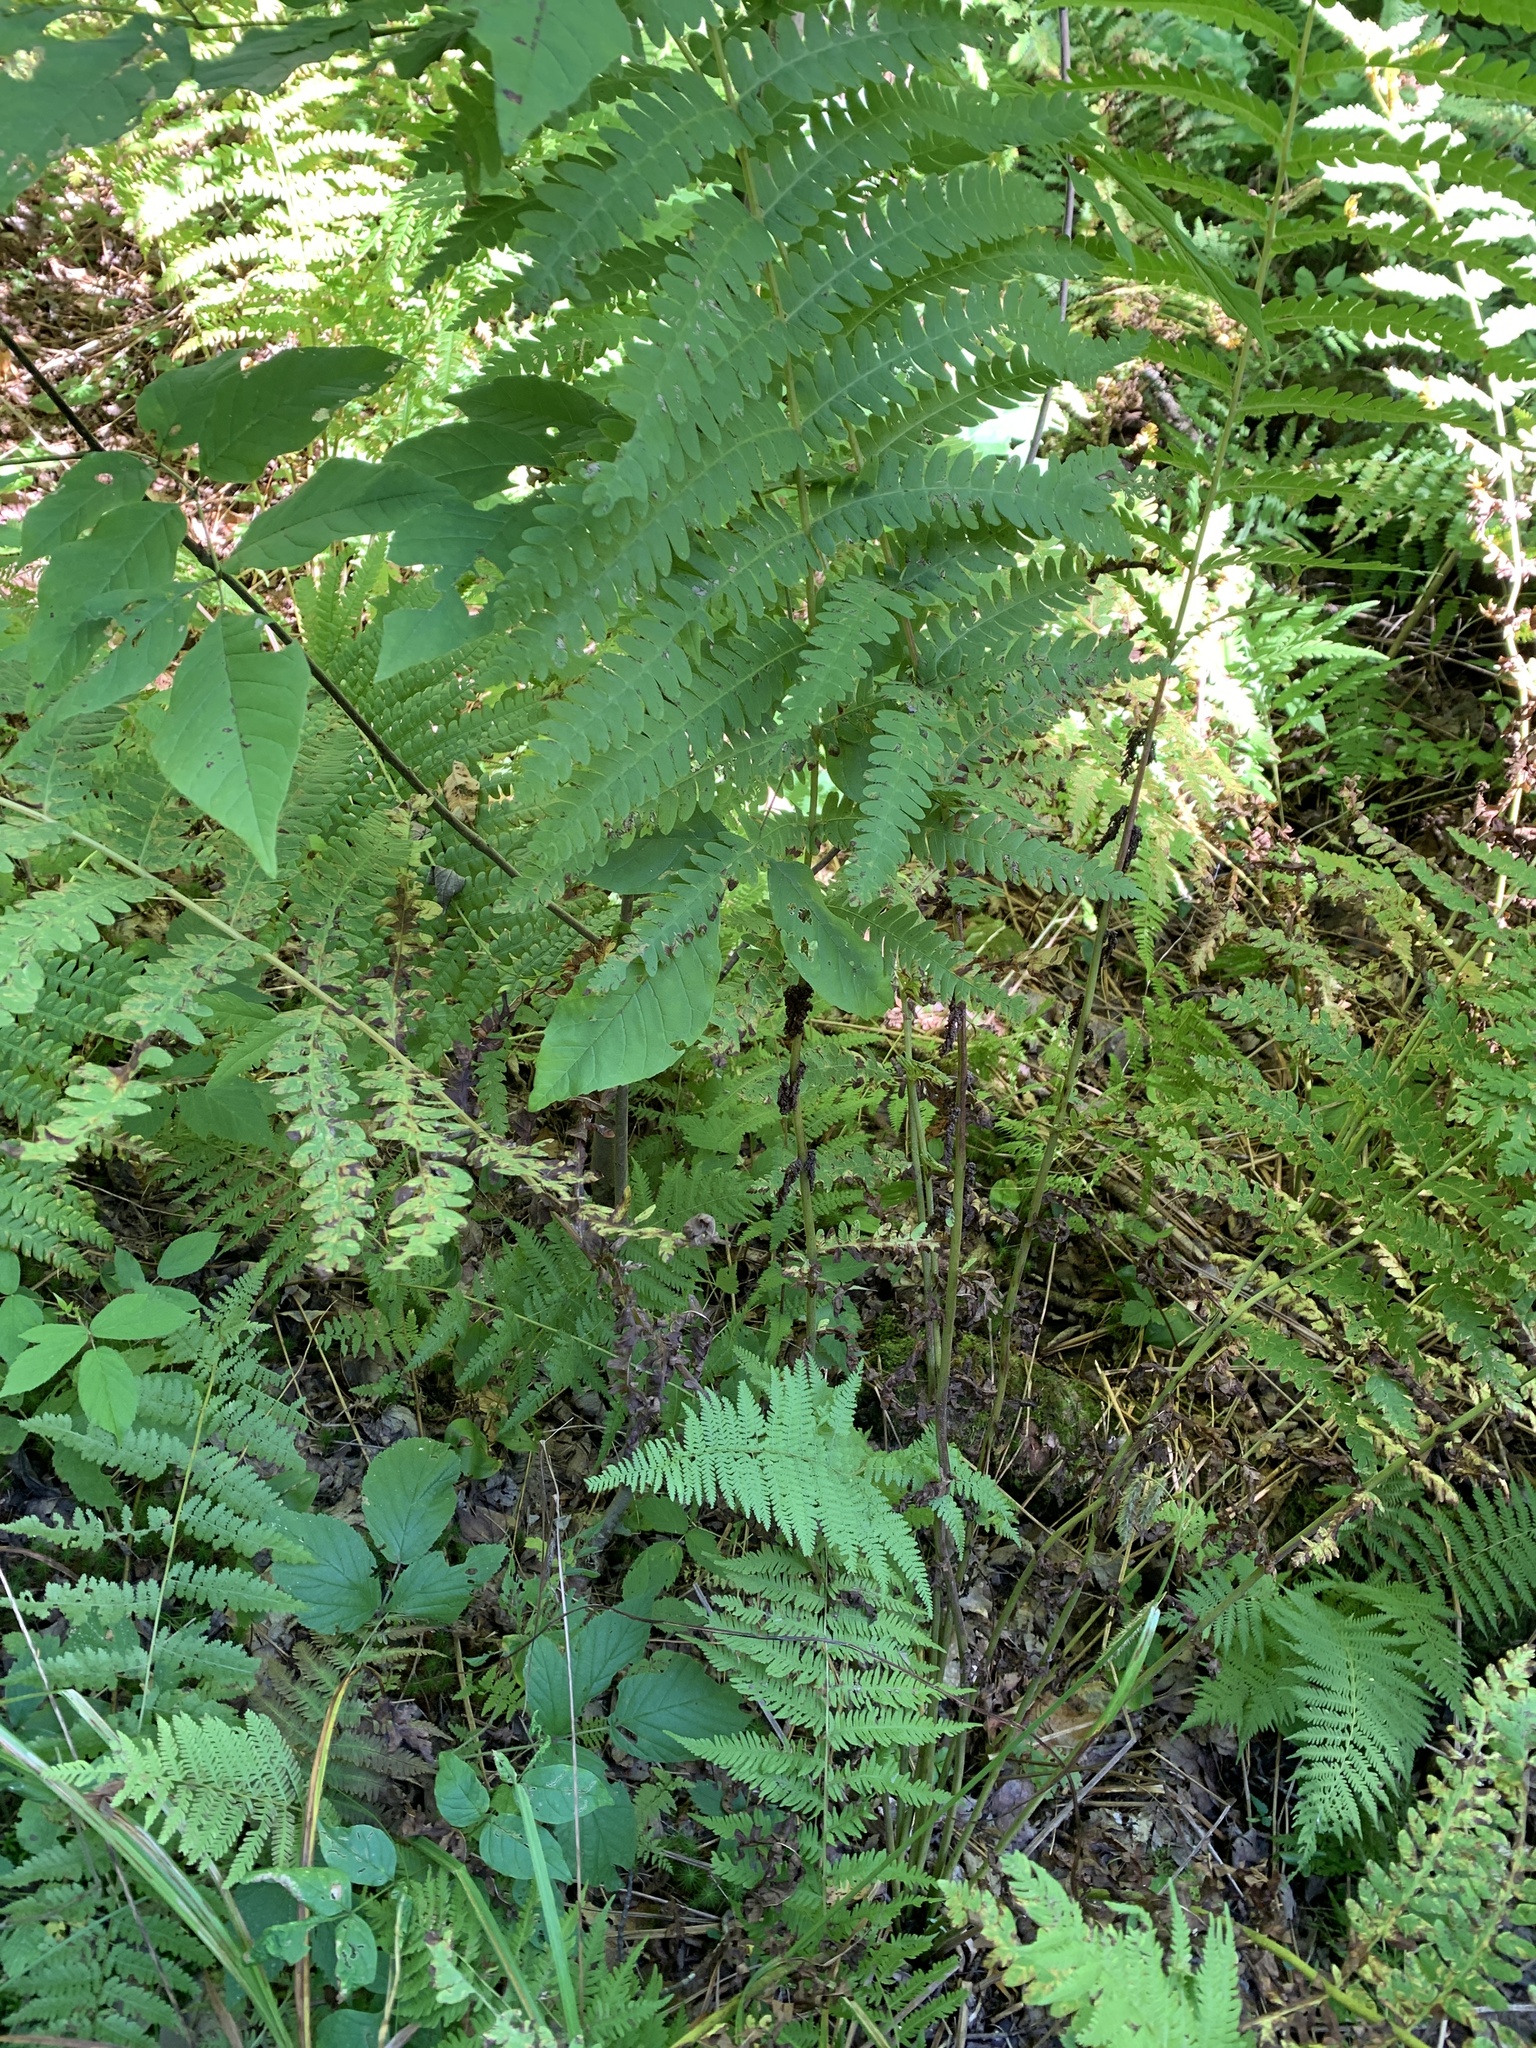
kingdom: Plantae
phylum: Tracheophyta
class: Polypodiopsida
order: Osmundales
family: Osmundaceae
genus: Claytosmunda
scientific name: Claytosmunda claytoniana
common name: Clayton's fern
